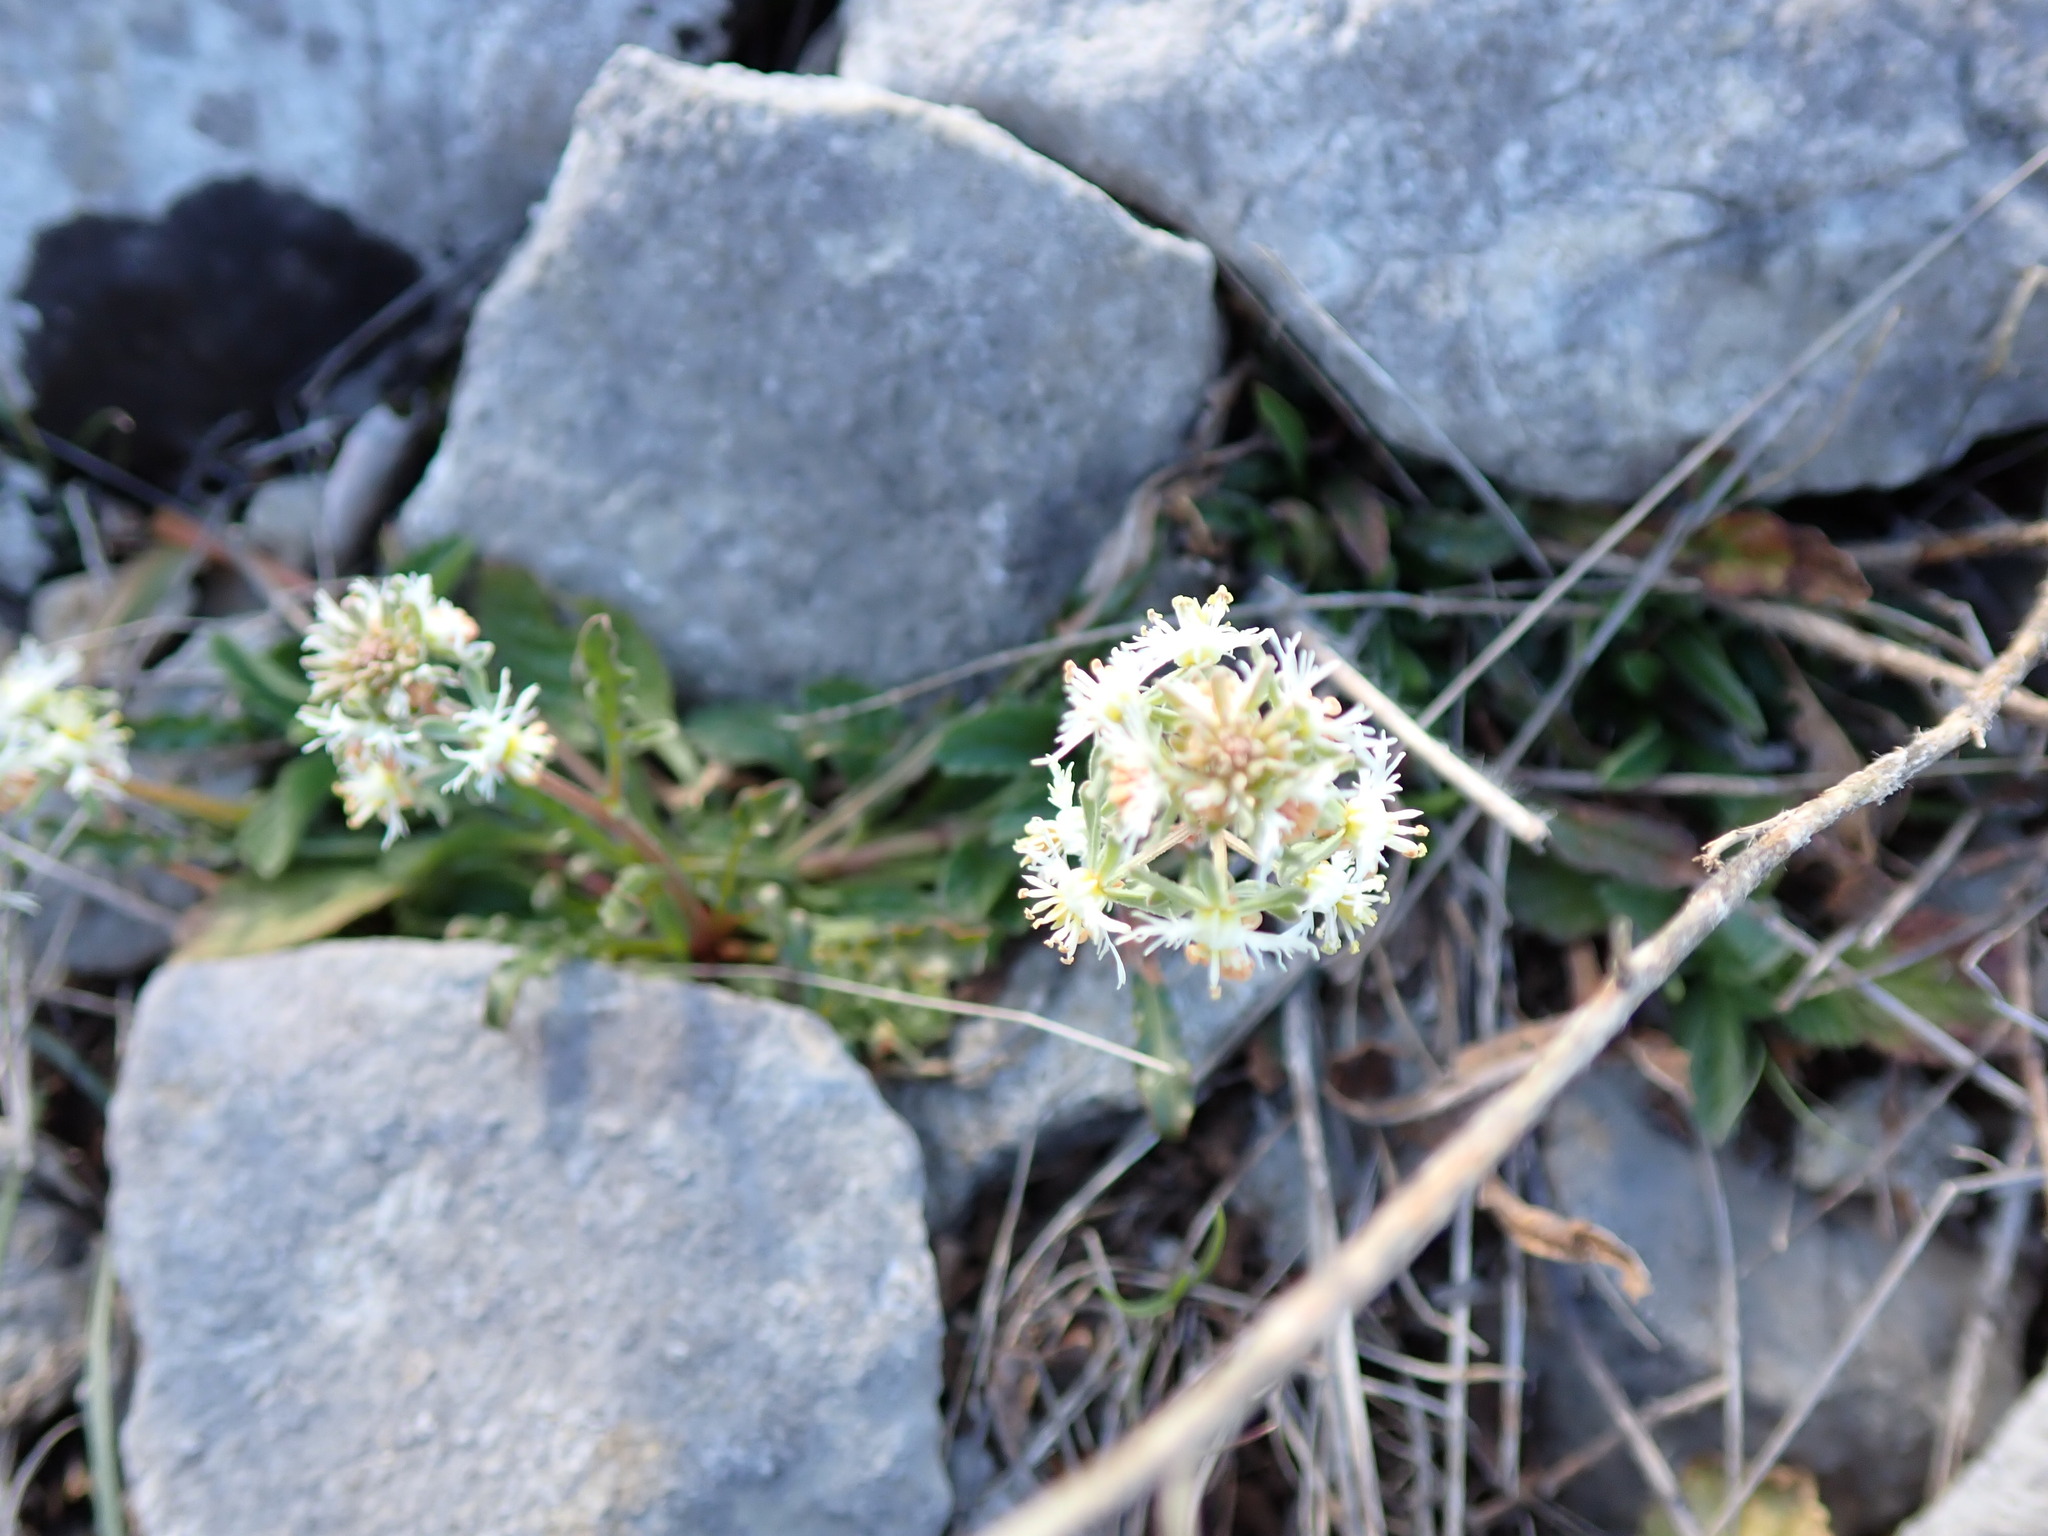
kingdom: Plantae
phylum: Tracheophyta
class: Magnoliopsida
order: Brassicales
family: Resedaceae
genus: Reseda
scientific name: Reseda phyteuma
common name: Corn mignonette
